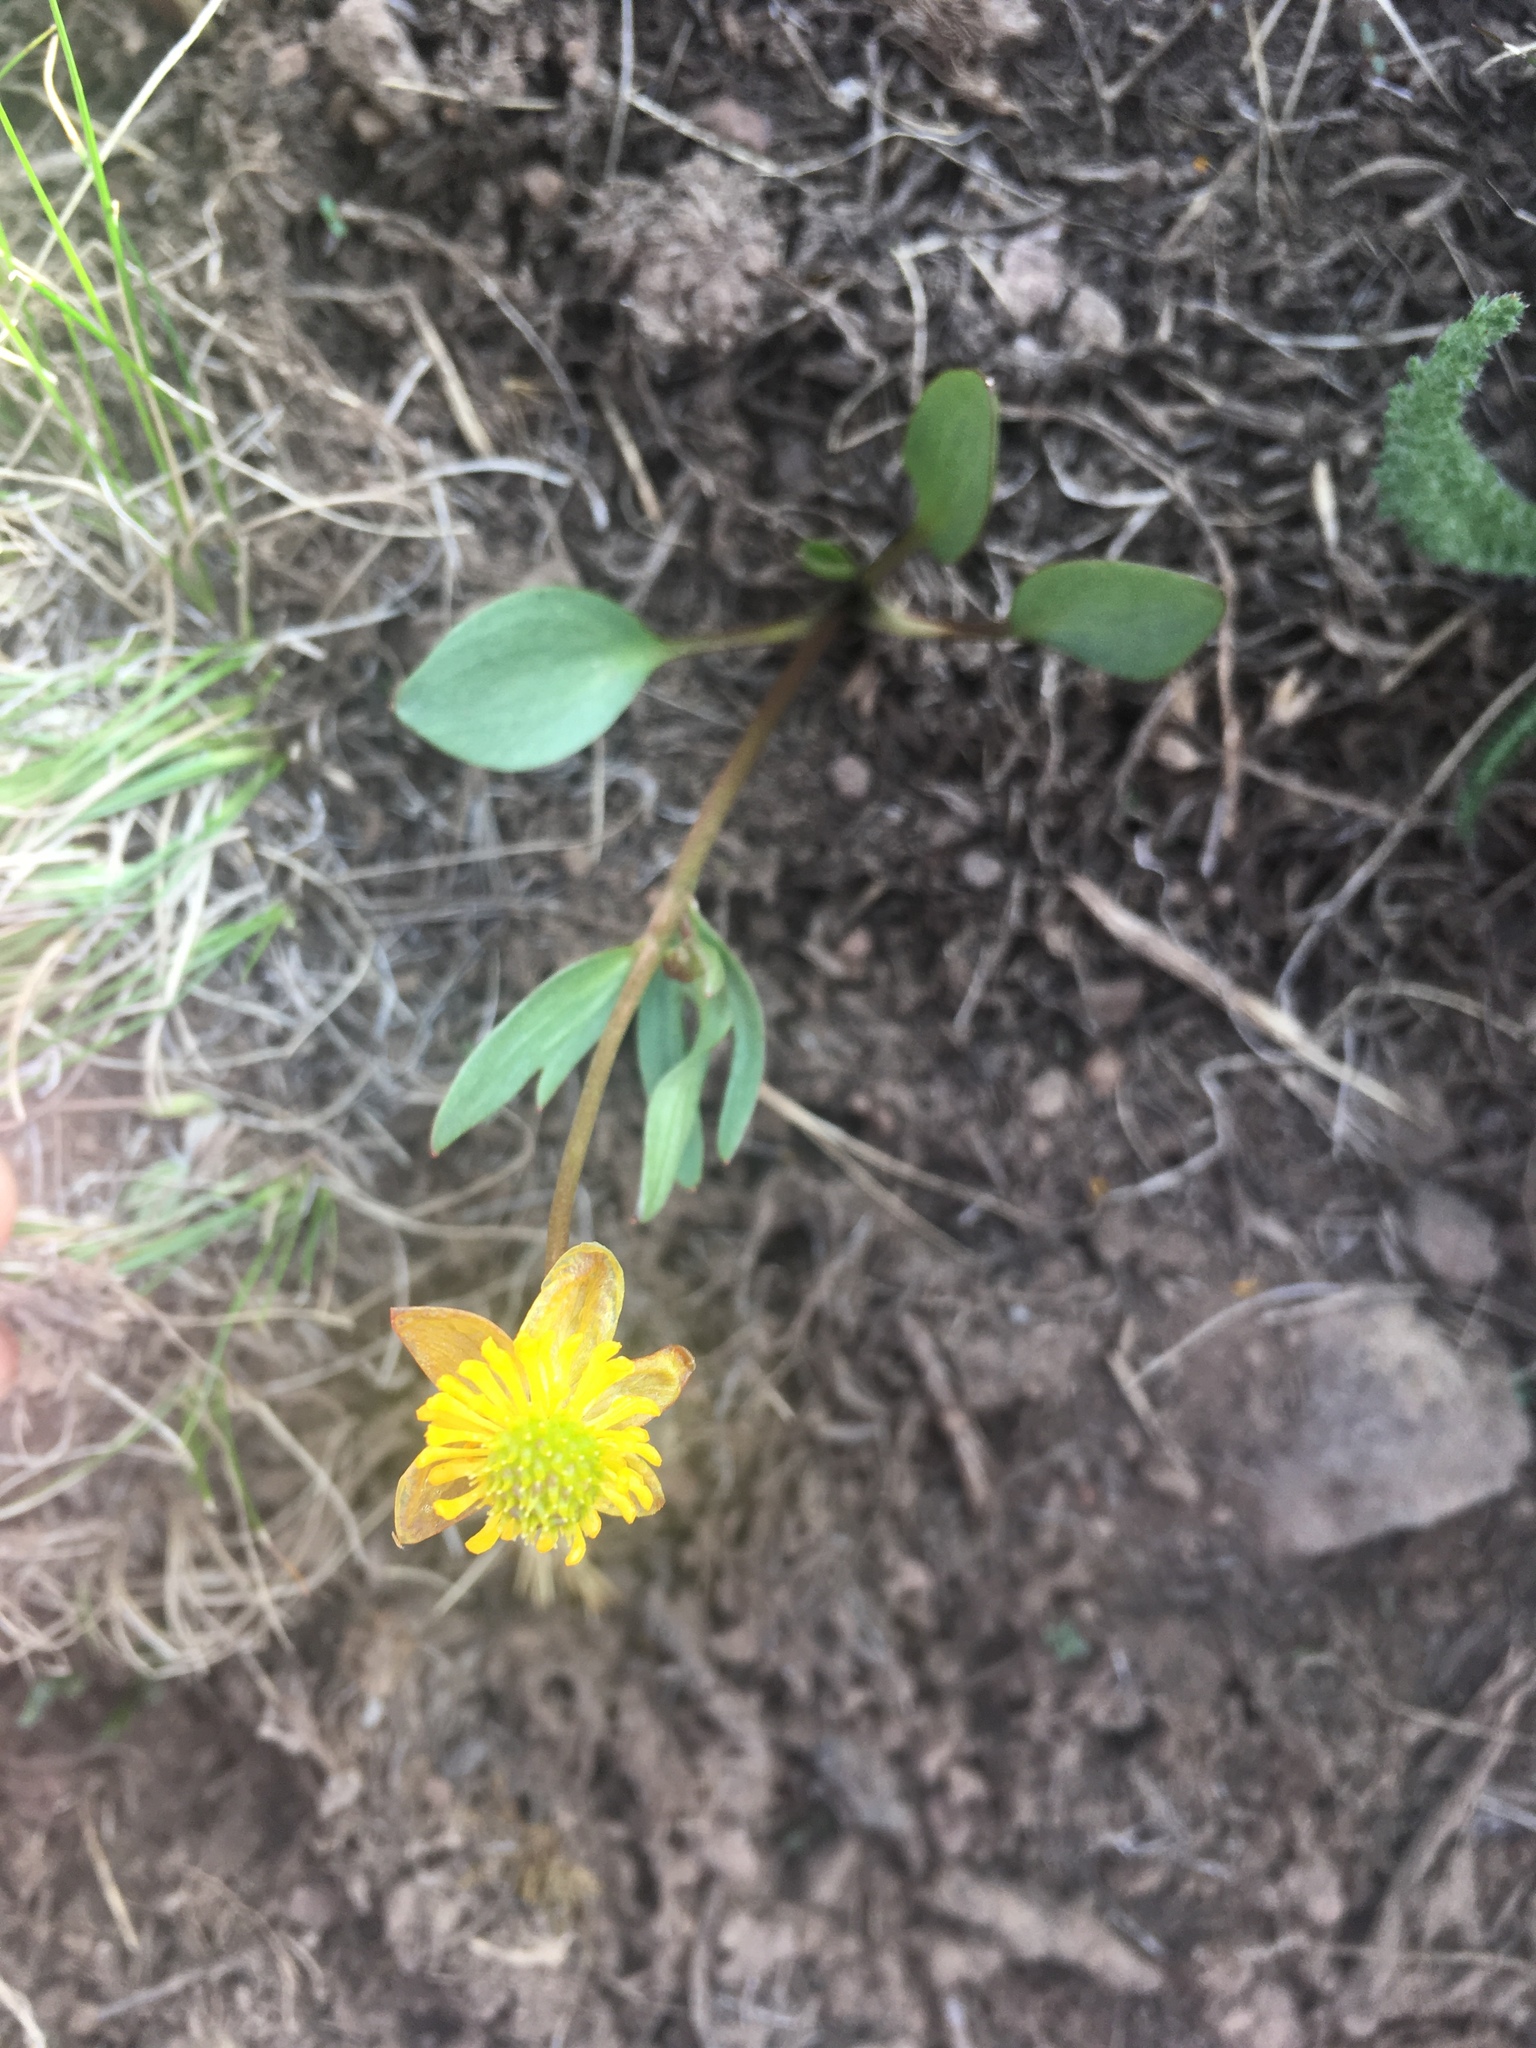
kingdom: Plantae
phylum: Tracheophyta
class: Magnoliopsida
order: Ranunculales
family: Ranunculaceae
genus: Ranunculus
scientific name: Ranunculus eschscholtzii
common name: Eschscholtz's buttercup
